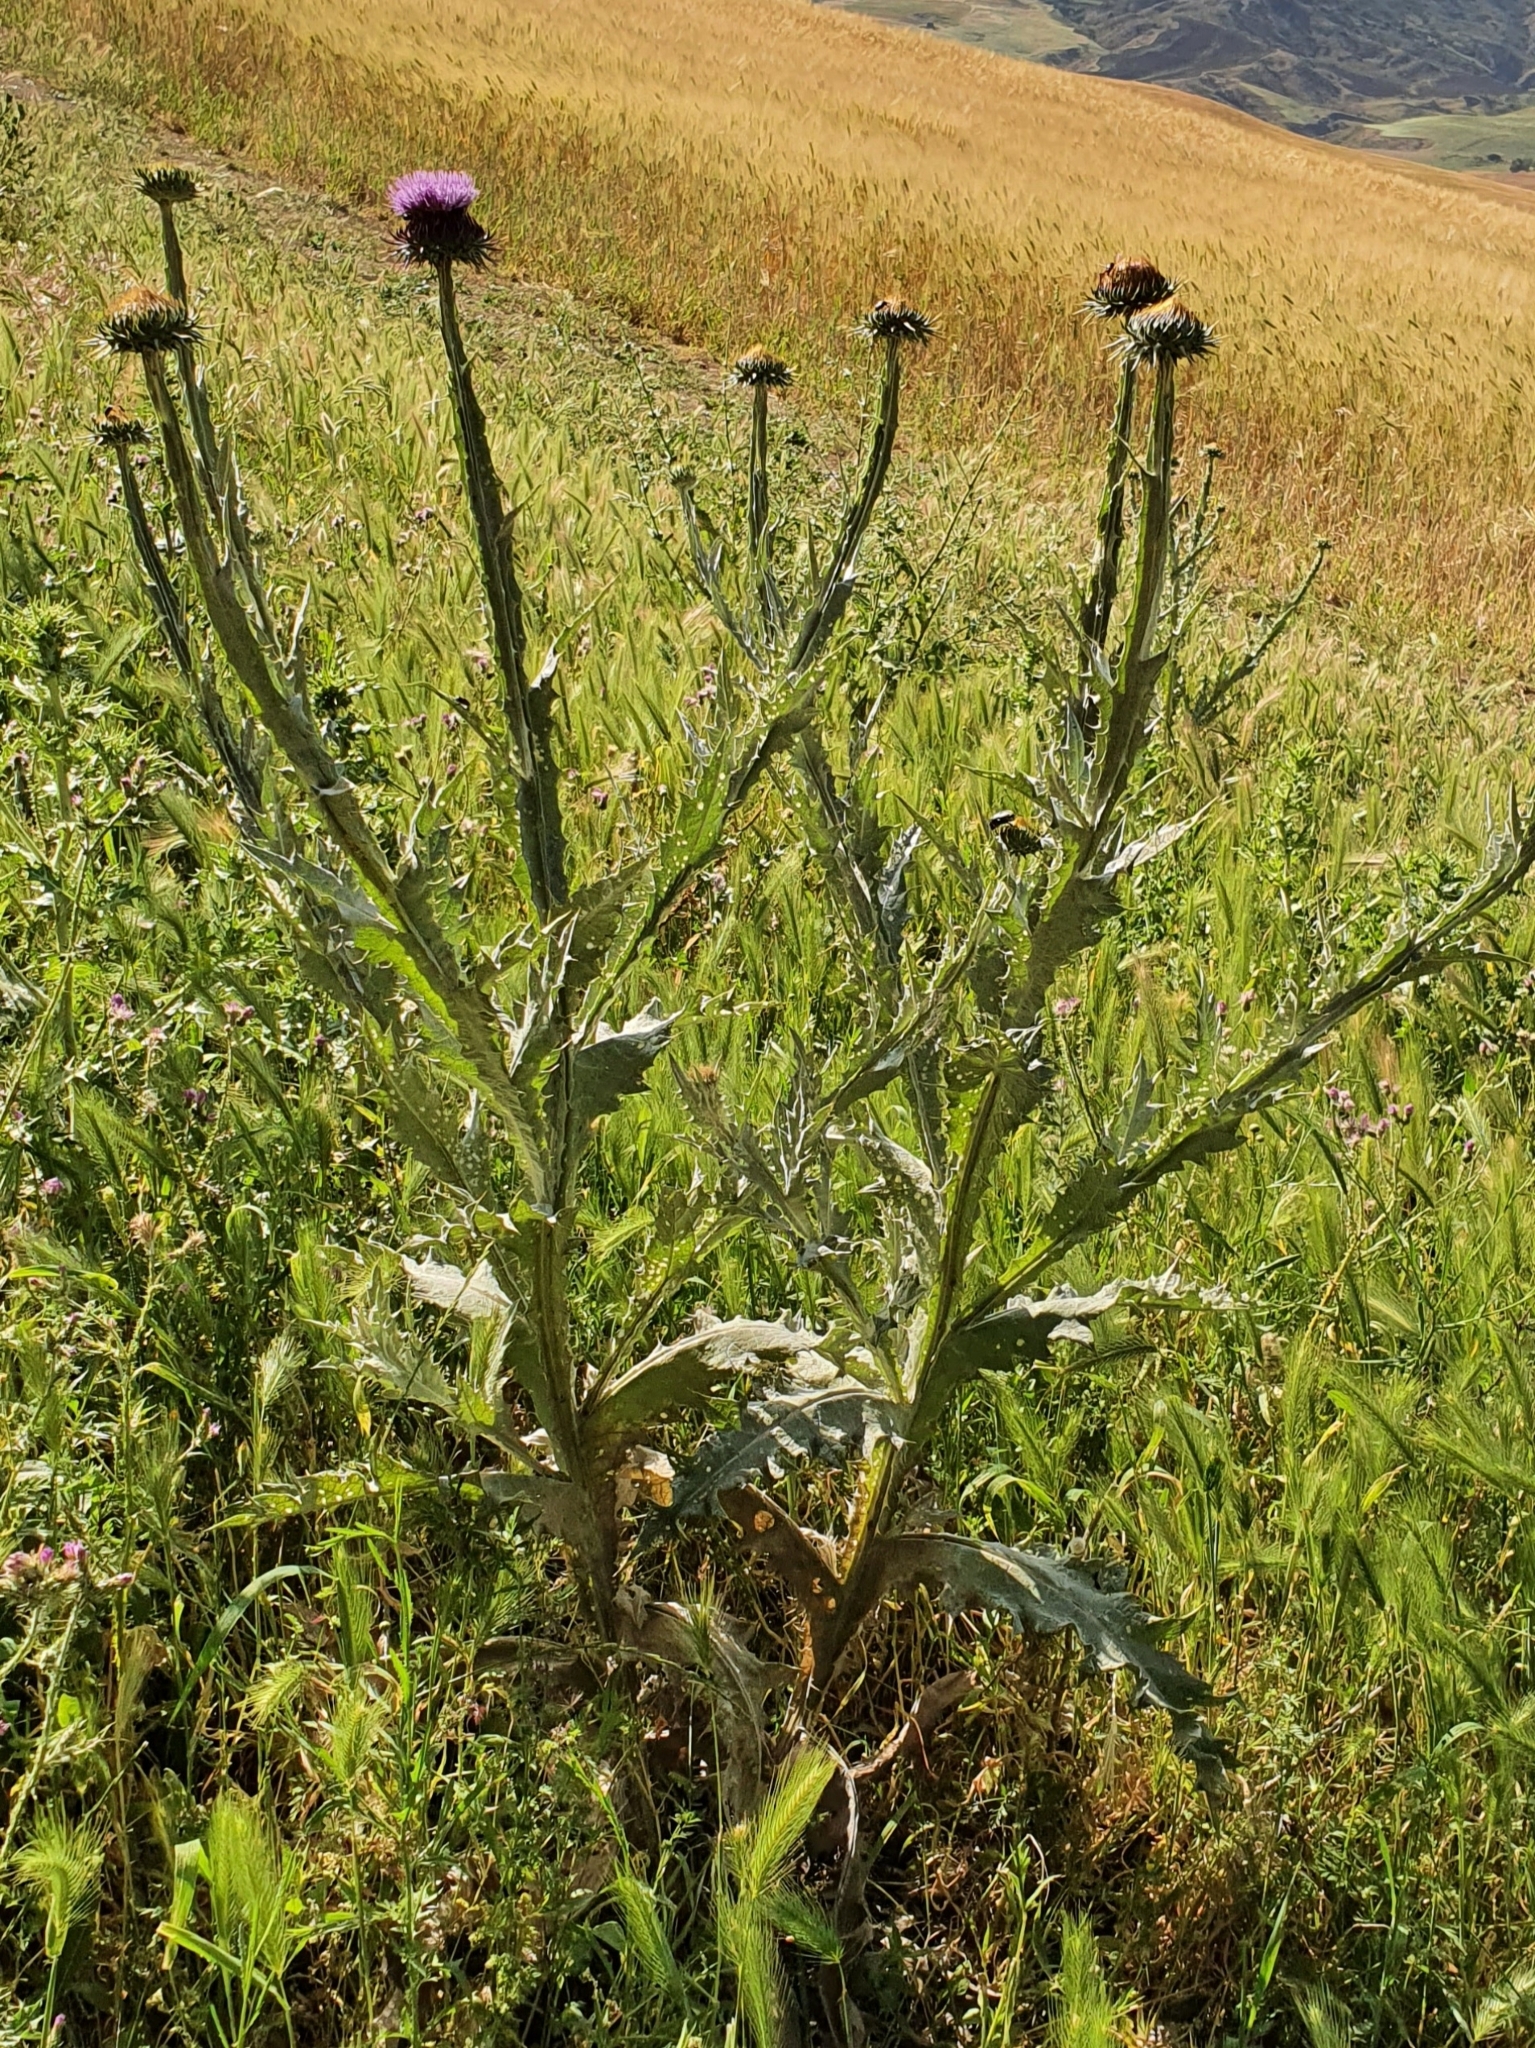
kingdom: Plantae
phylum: Tracheophyta
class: Magnoliopsida
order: Asterales
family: Asteraceae
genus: Onopordum
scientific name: Onopordum macracanthum
